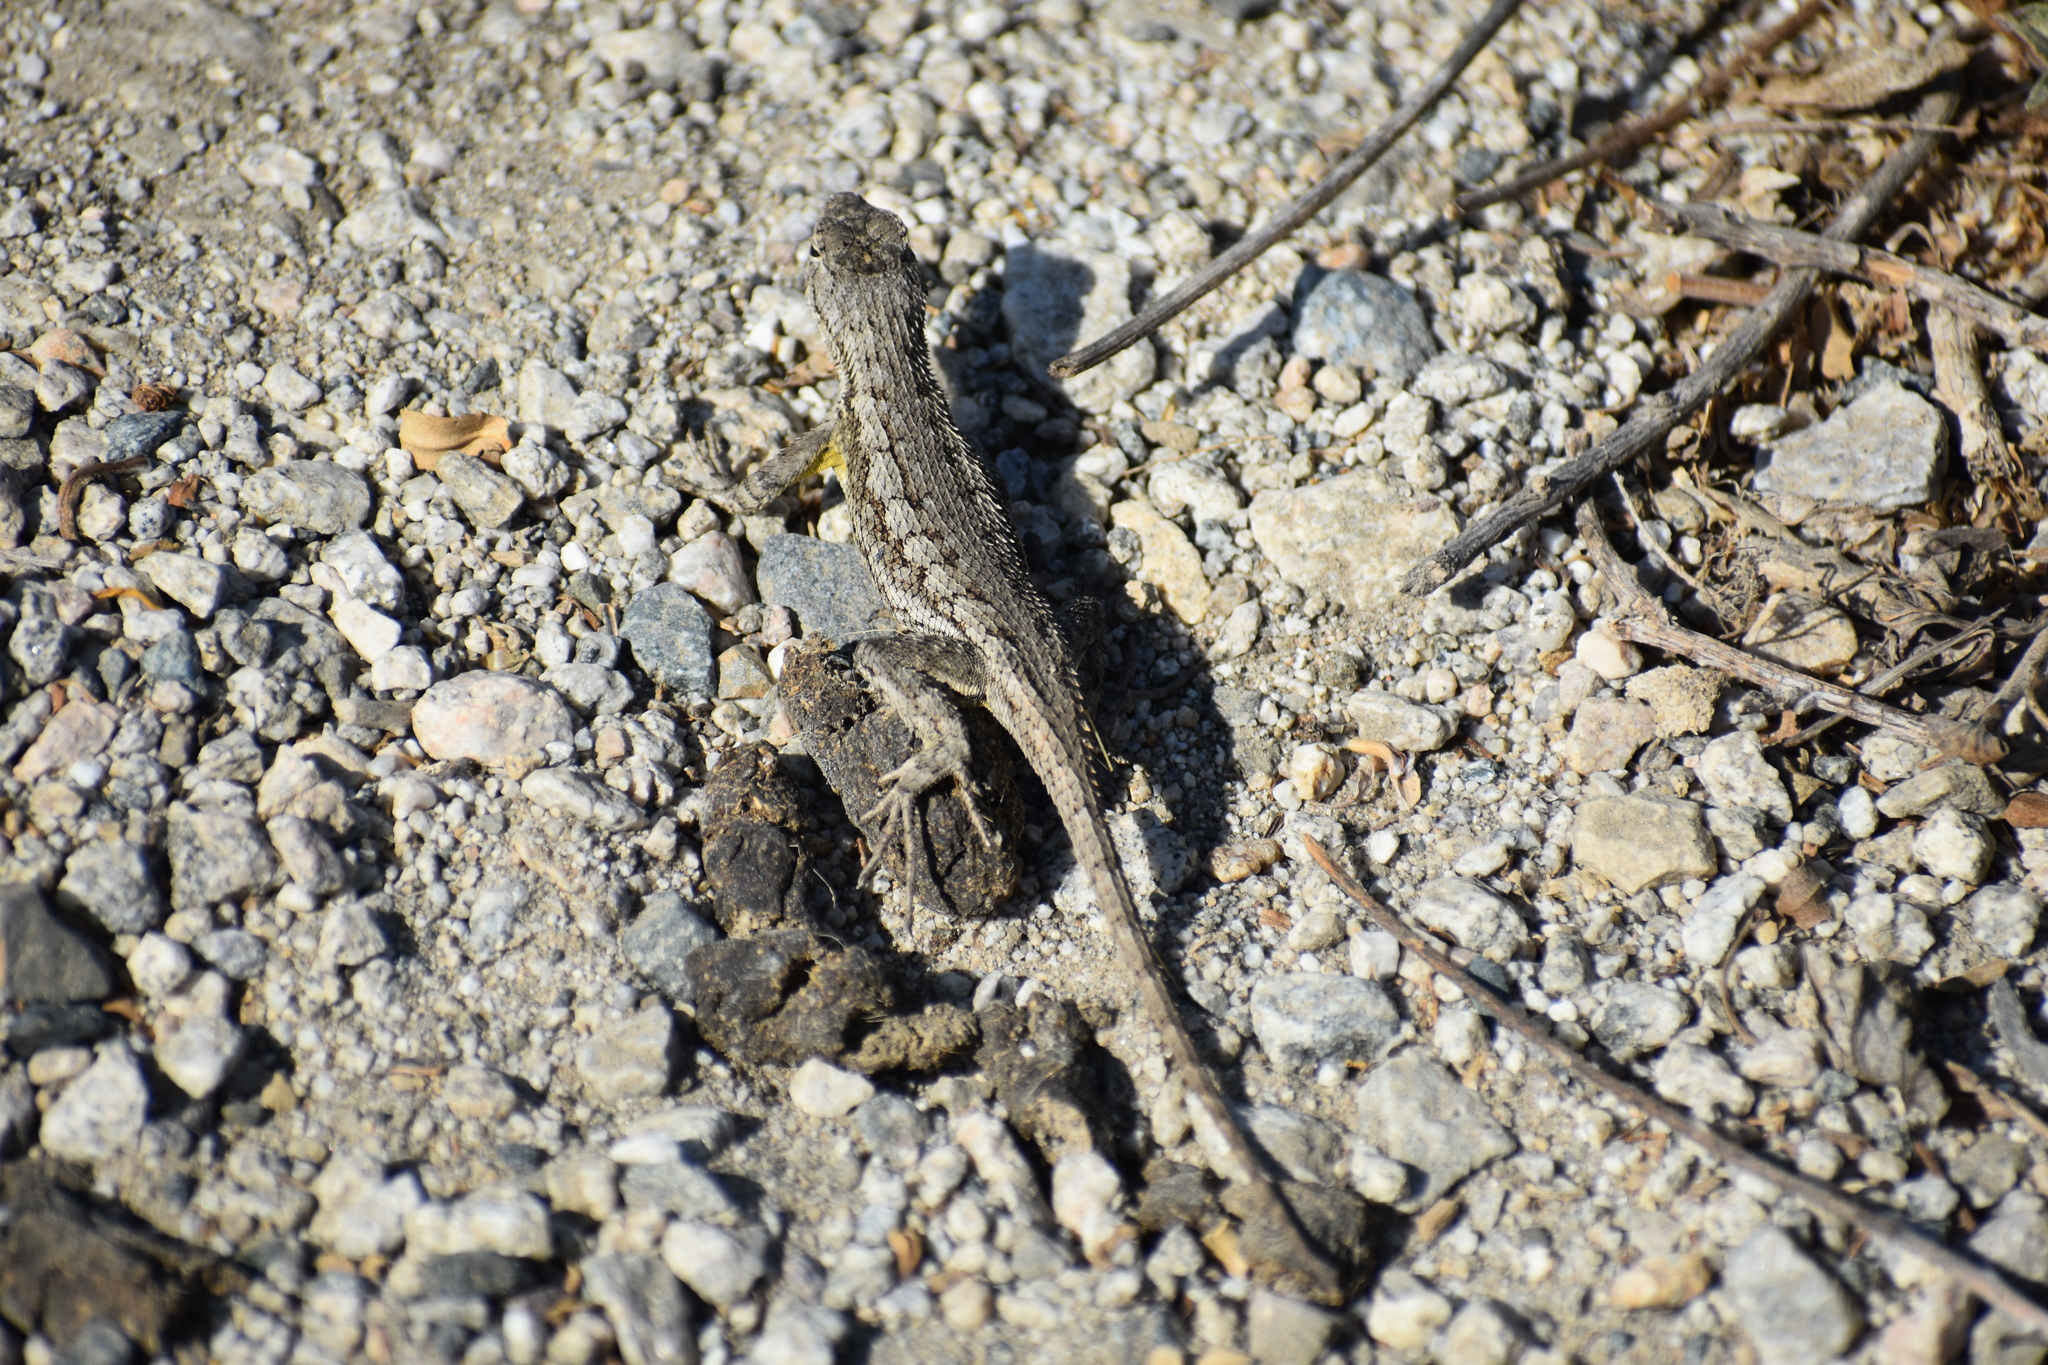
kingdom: Animalia
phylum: Chordata
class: Squamata
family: Phrynosomatidae
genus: Sceloporus
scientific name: Sceloporus occidentalis
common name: Western fence lizard
